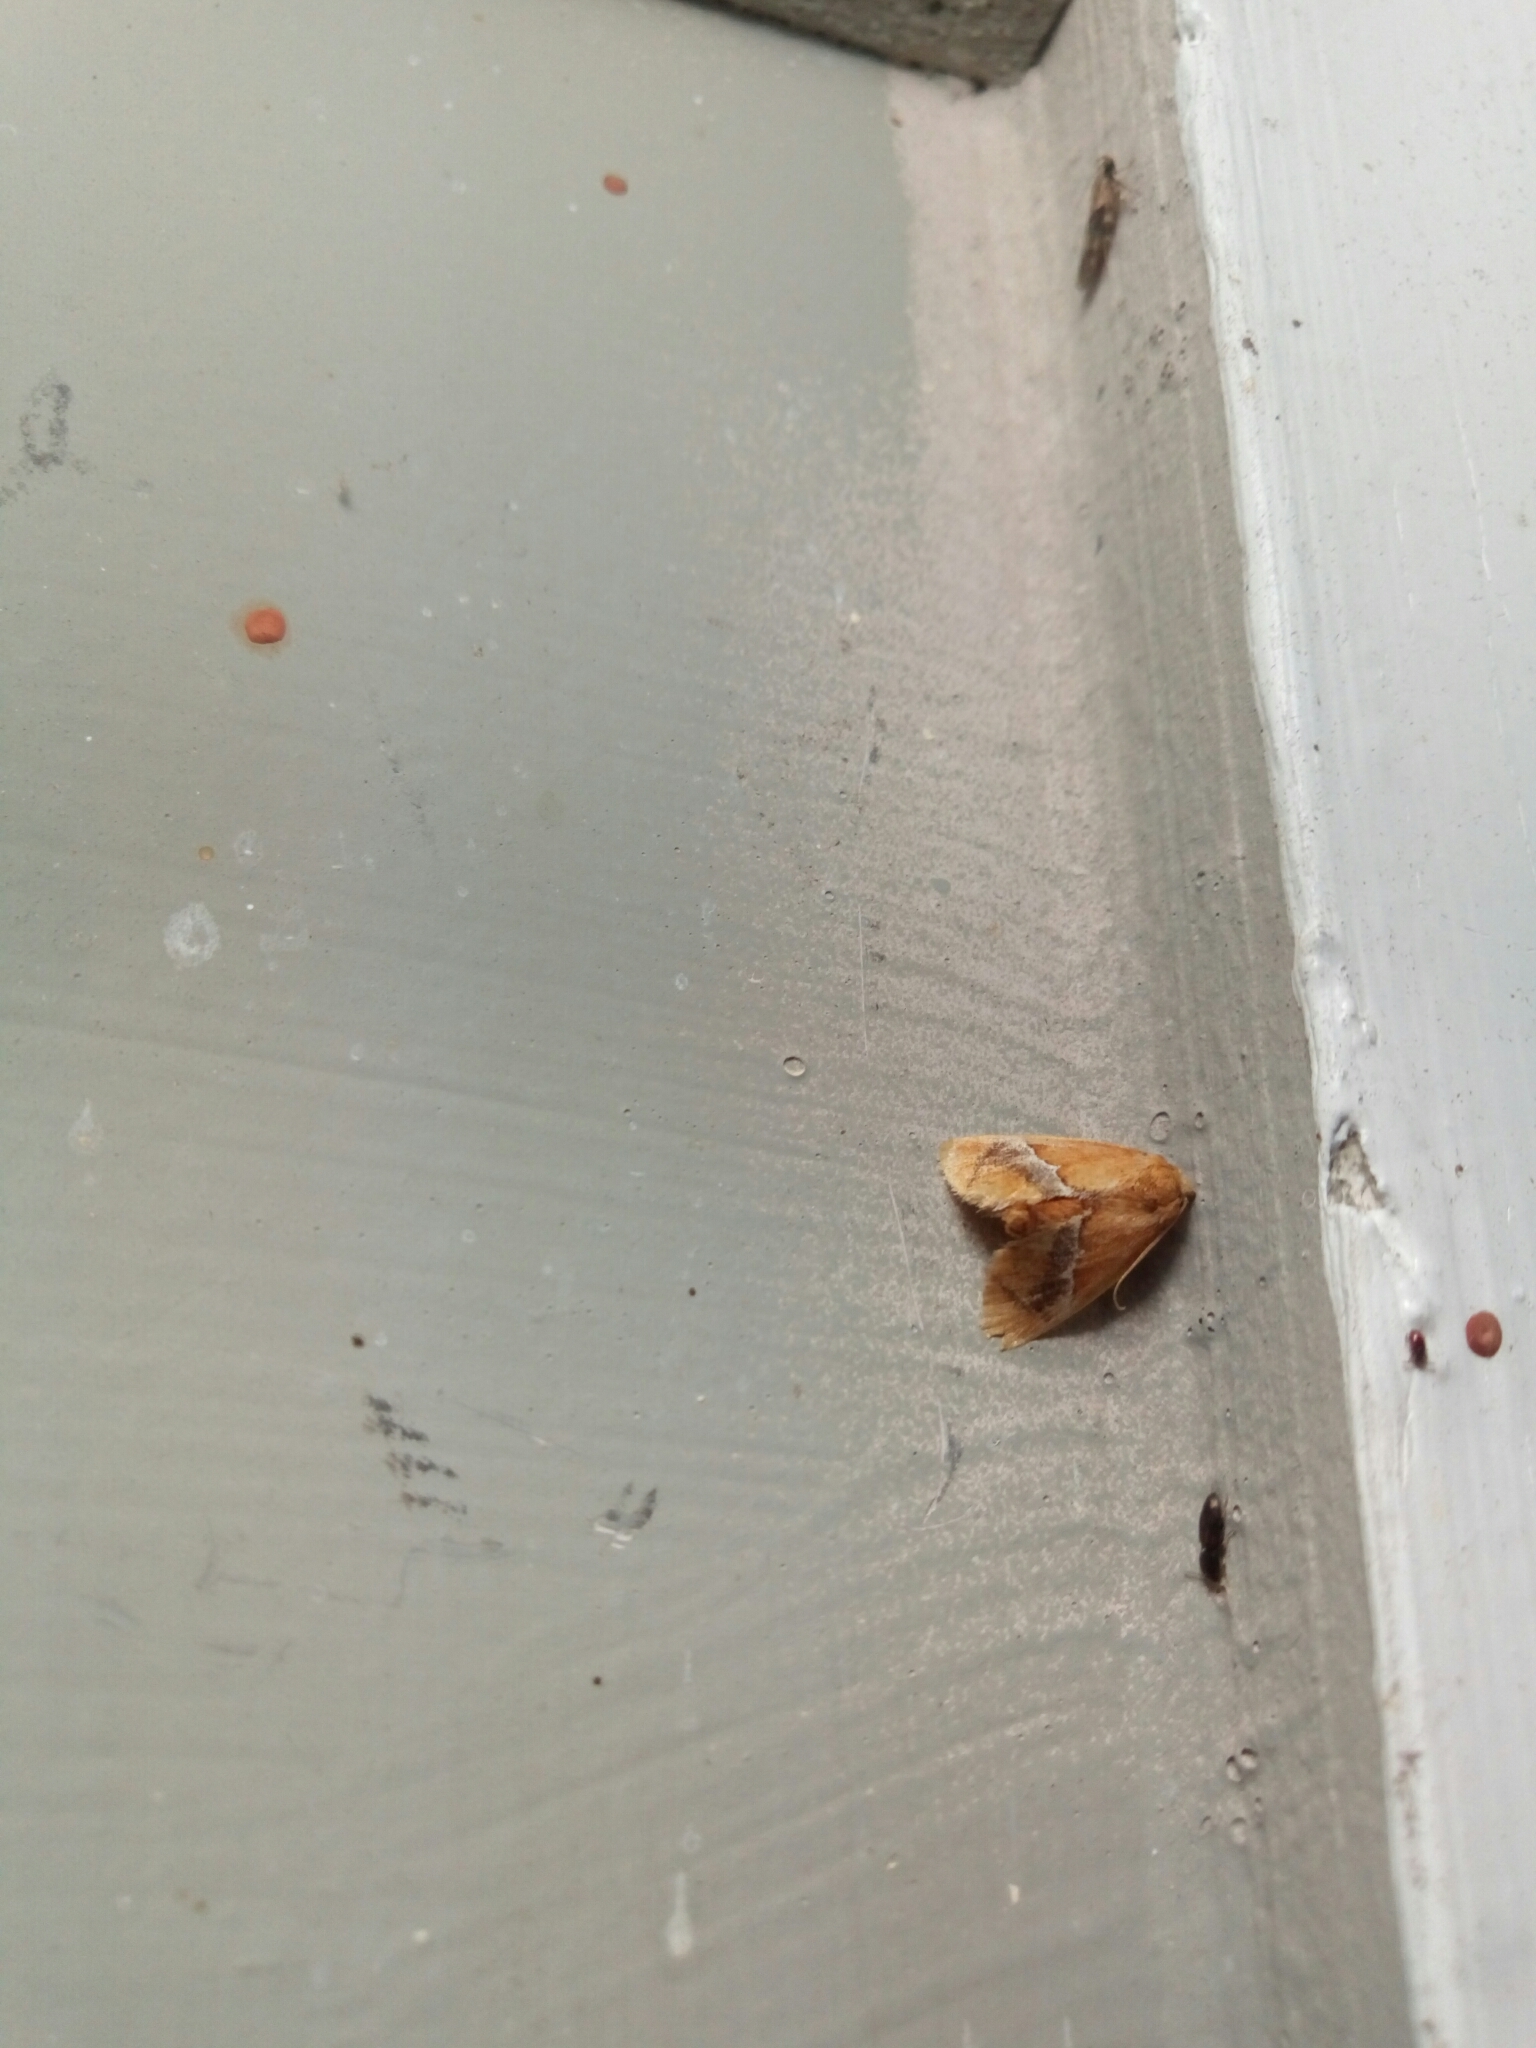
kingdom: Animalia
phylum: Arthropoda
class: Insecta
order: Lepidoptera
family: Limacodidae
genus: Lithacodes
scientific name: Lithacodes fasciola
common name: Yellow-shouldered slug moth
